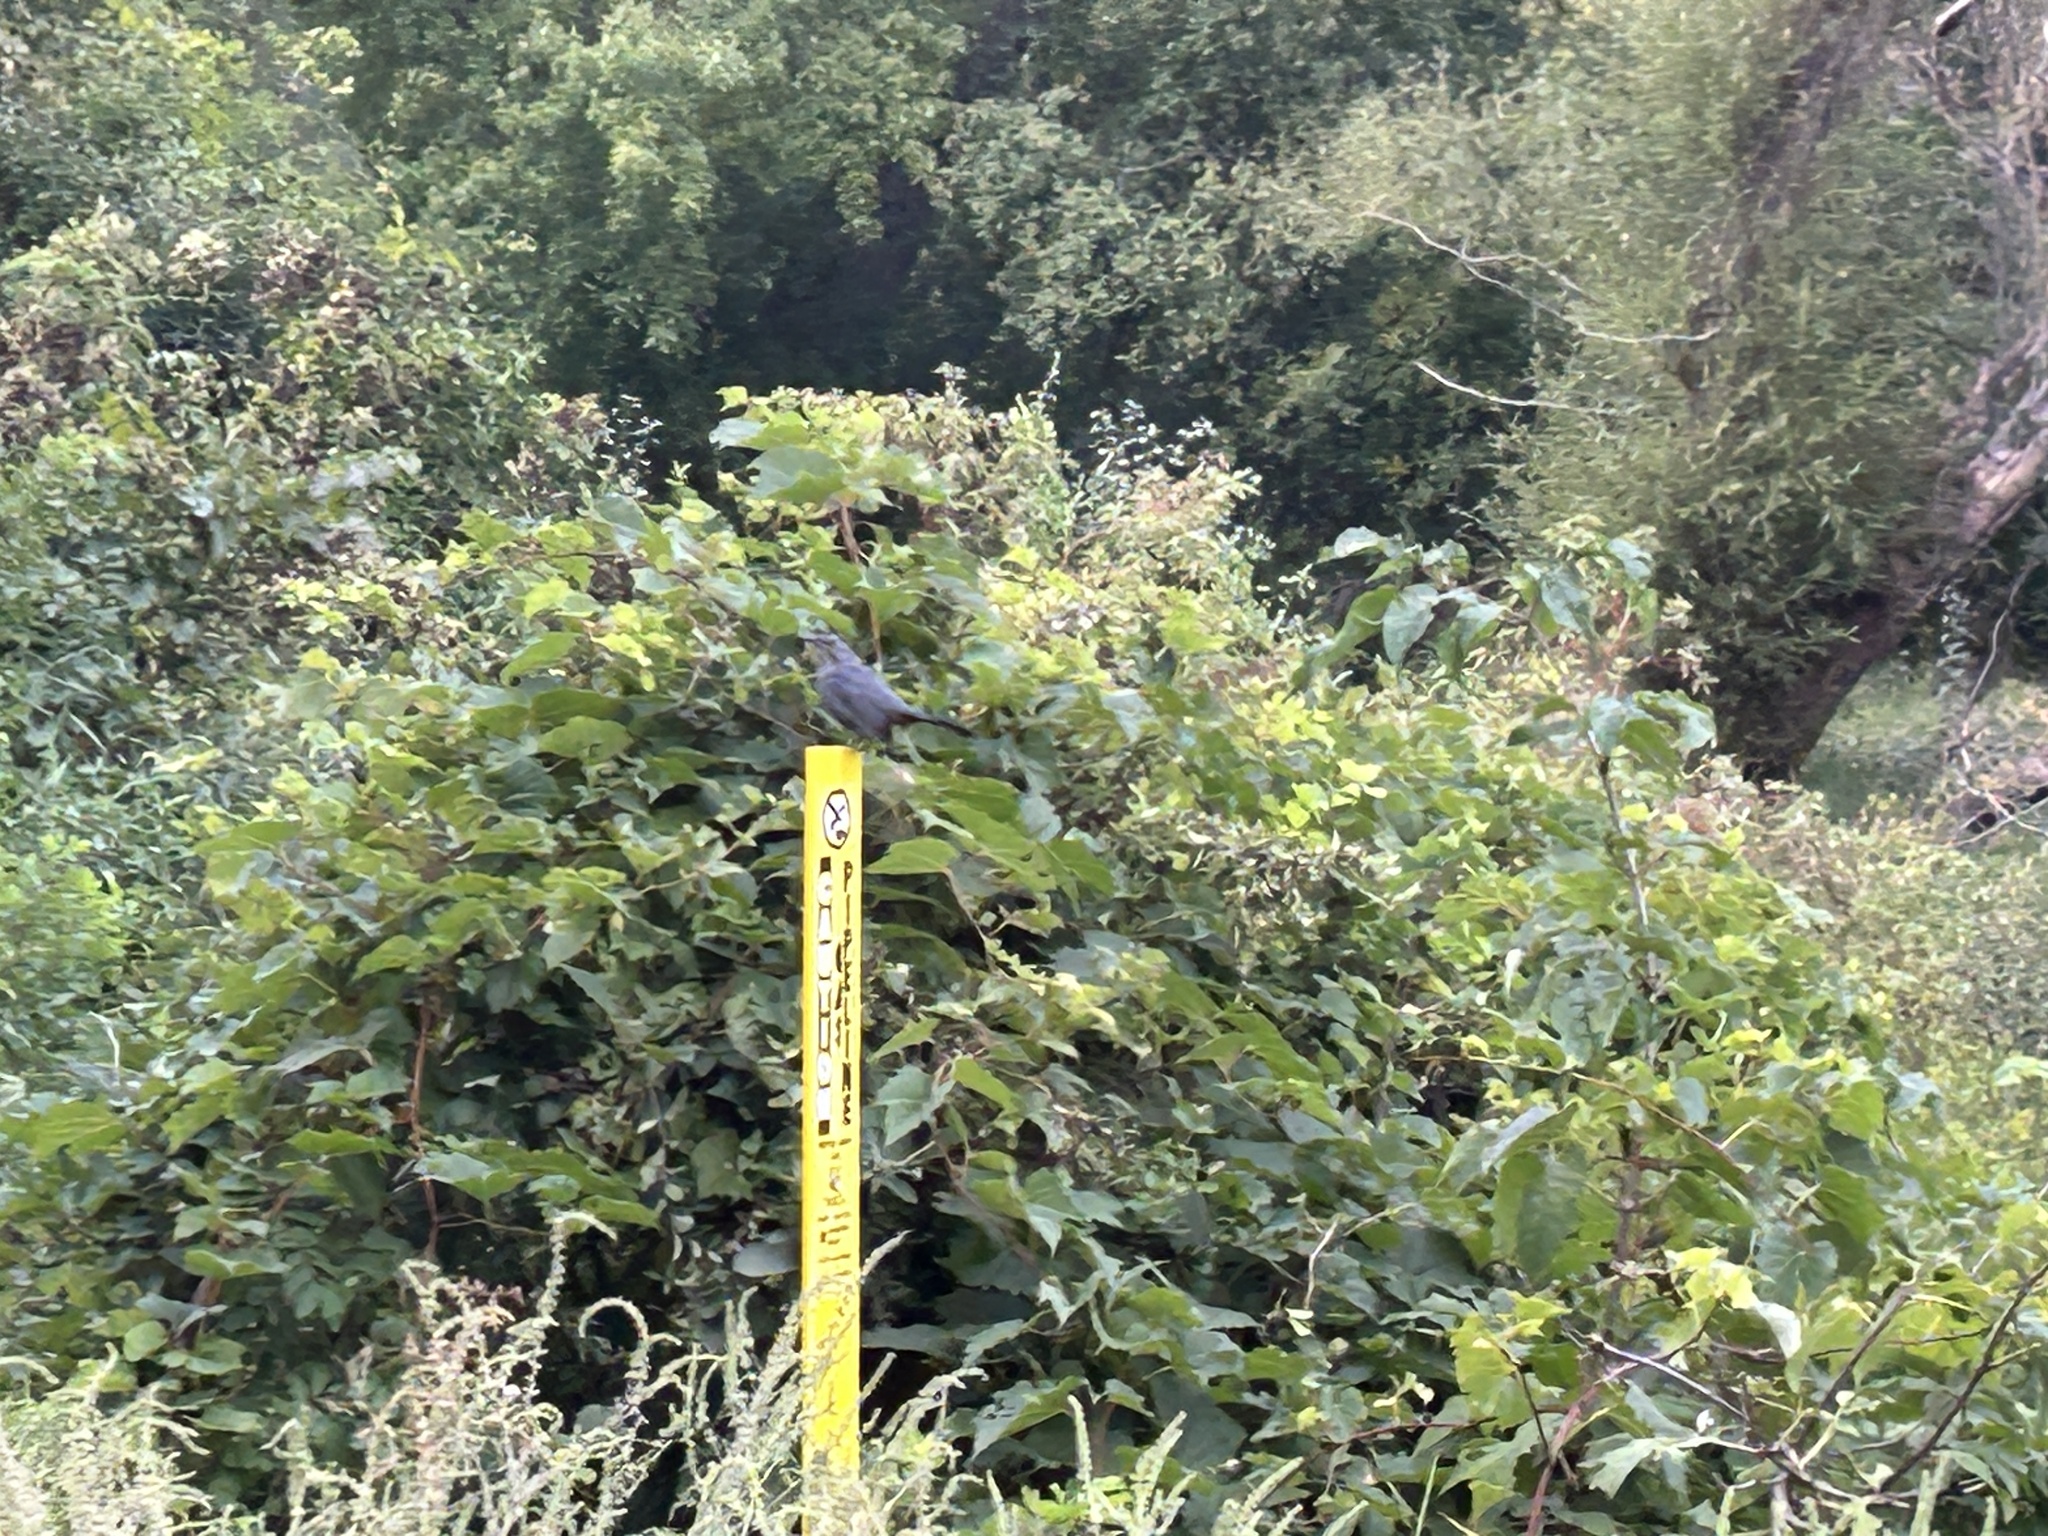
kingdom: Animalia
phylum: Chordata
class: Aves
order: Passeriformes
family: Mimidae
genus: Dumetella
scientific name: Dumetella carolinensis
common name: Gray catbird
